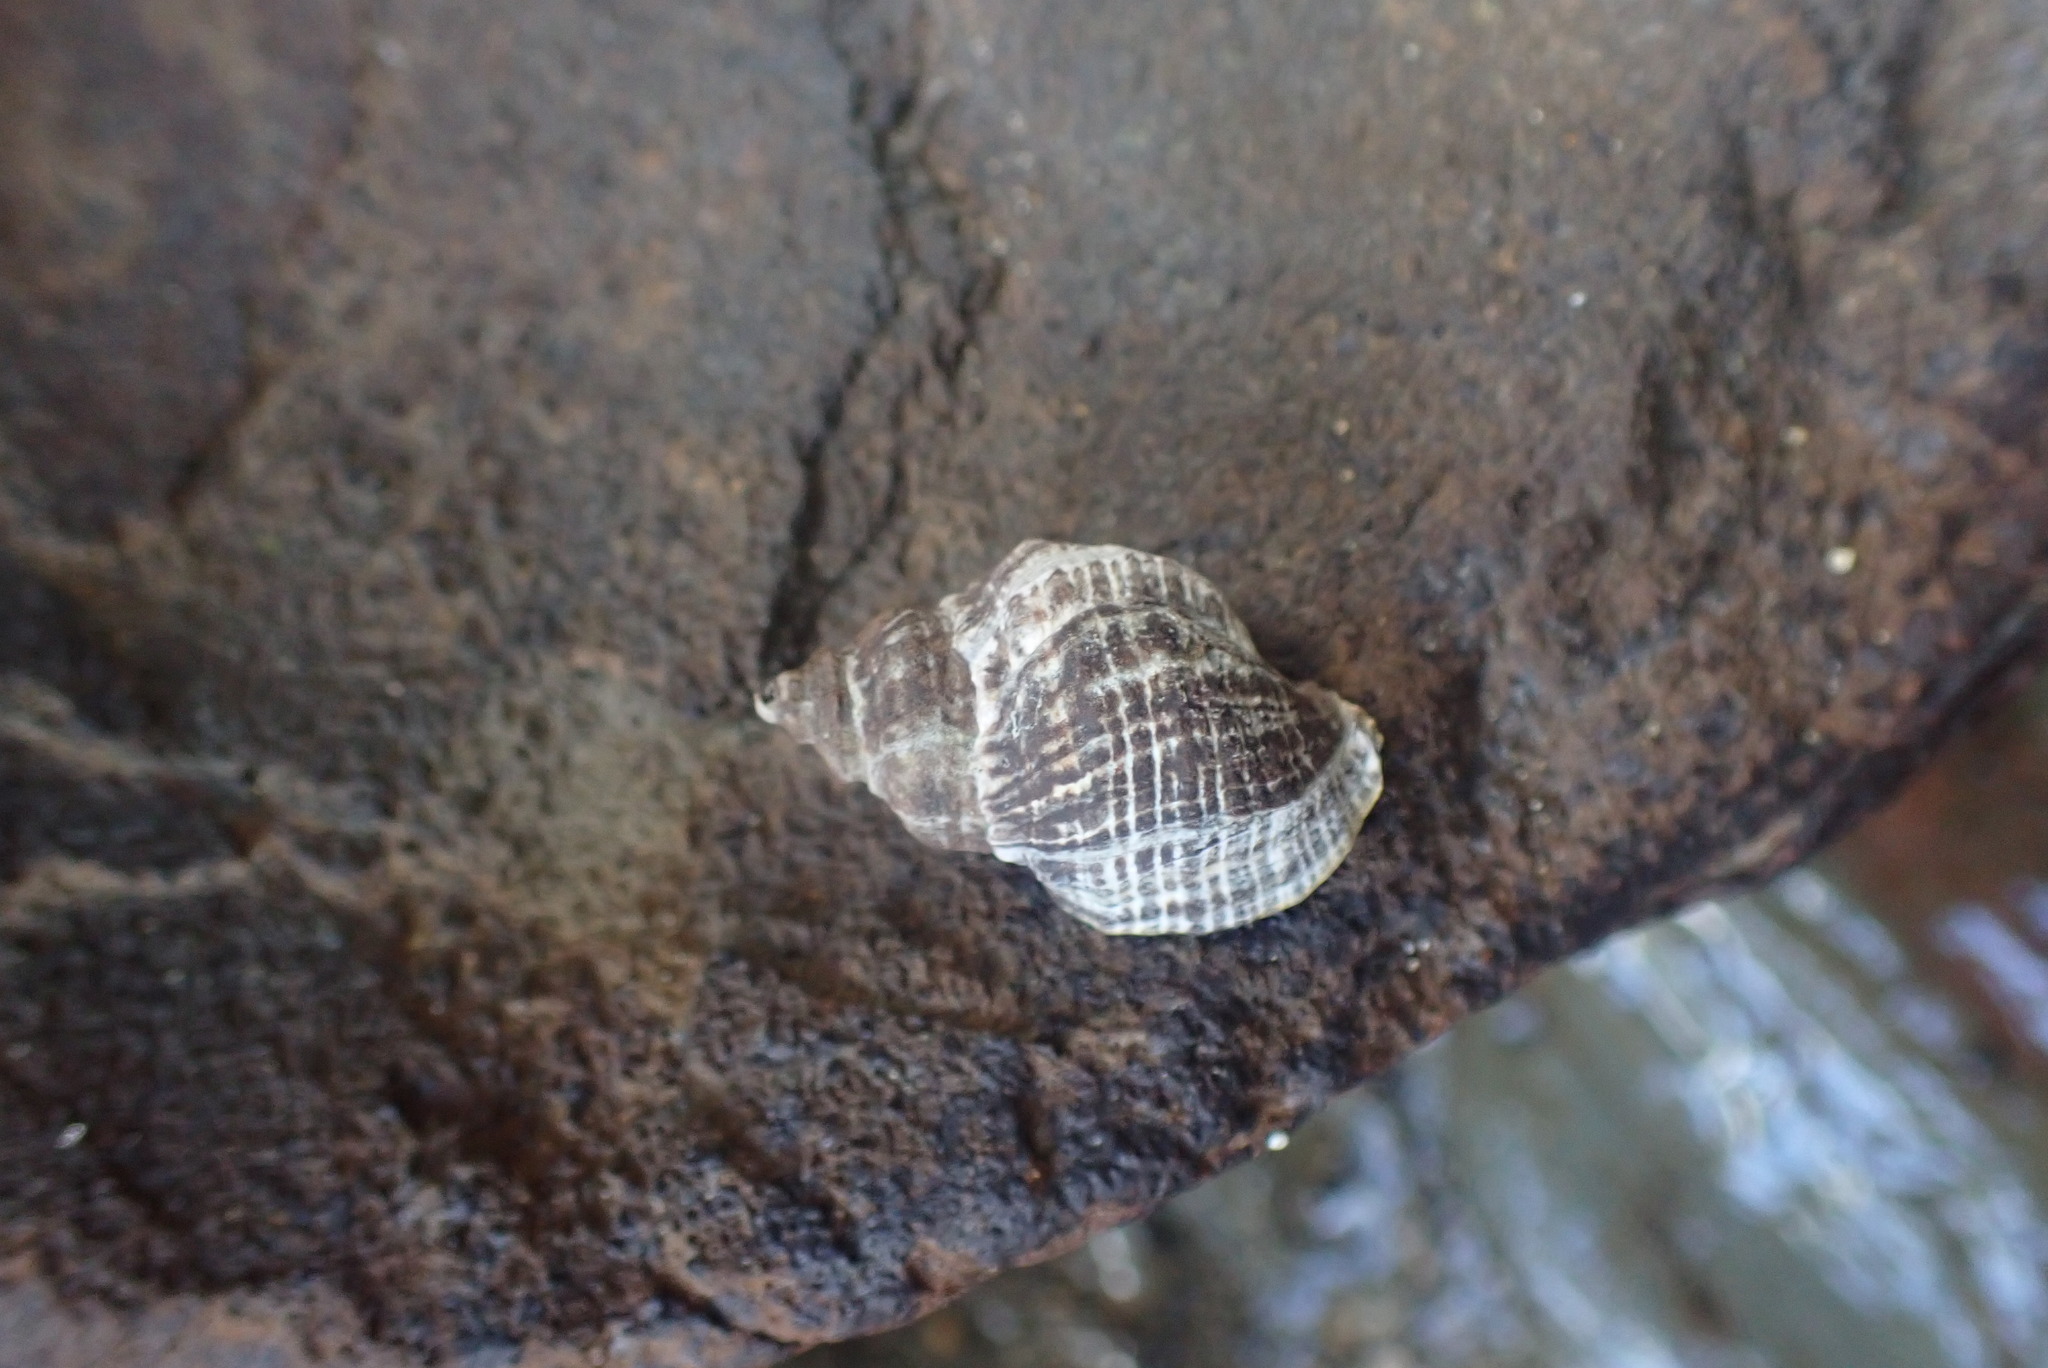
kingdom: Animalia
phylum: Mollusca
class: Gastropoda
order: Neogastropoda
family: Muricidae
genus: Haustrum
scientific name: Haustrum albomarginatum
